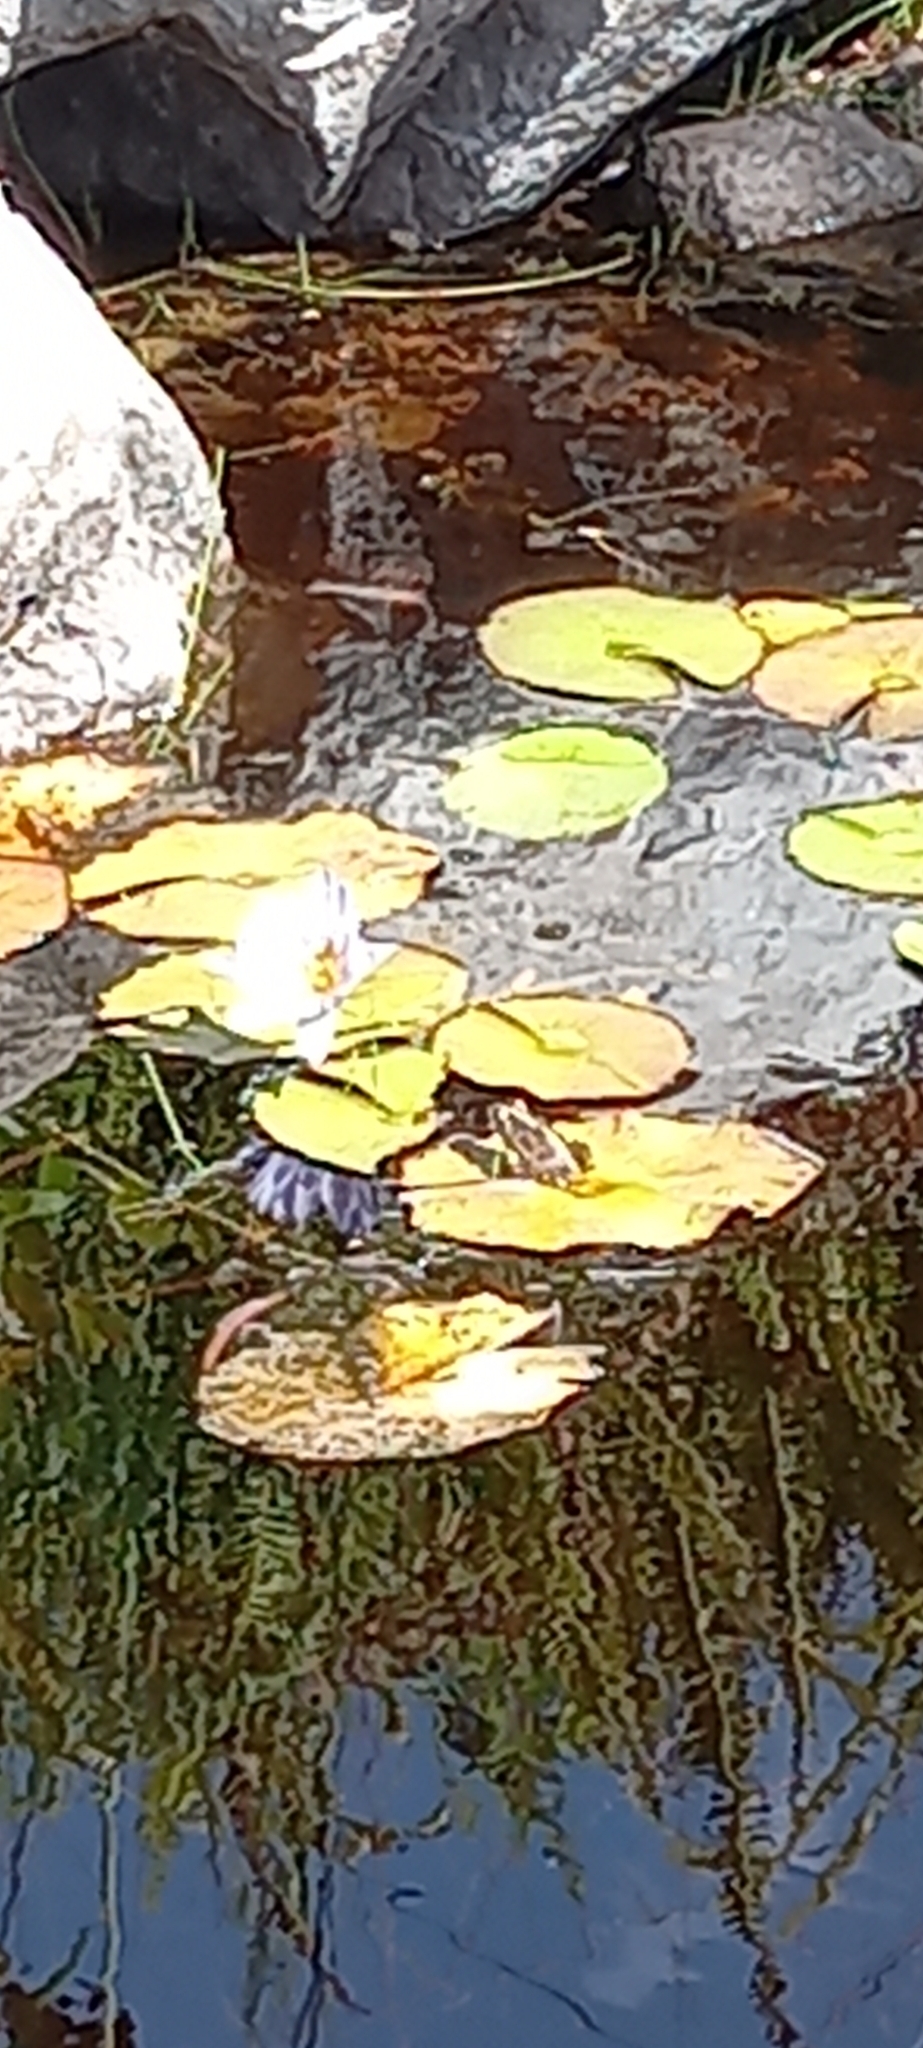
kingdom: Animalia
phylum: Chordata
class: Amphibia
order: Anura
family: Pyxicephalidae
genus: Amietia
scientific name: Amietia fuscigula
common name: Cape rana
